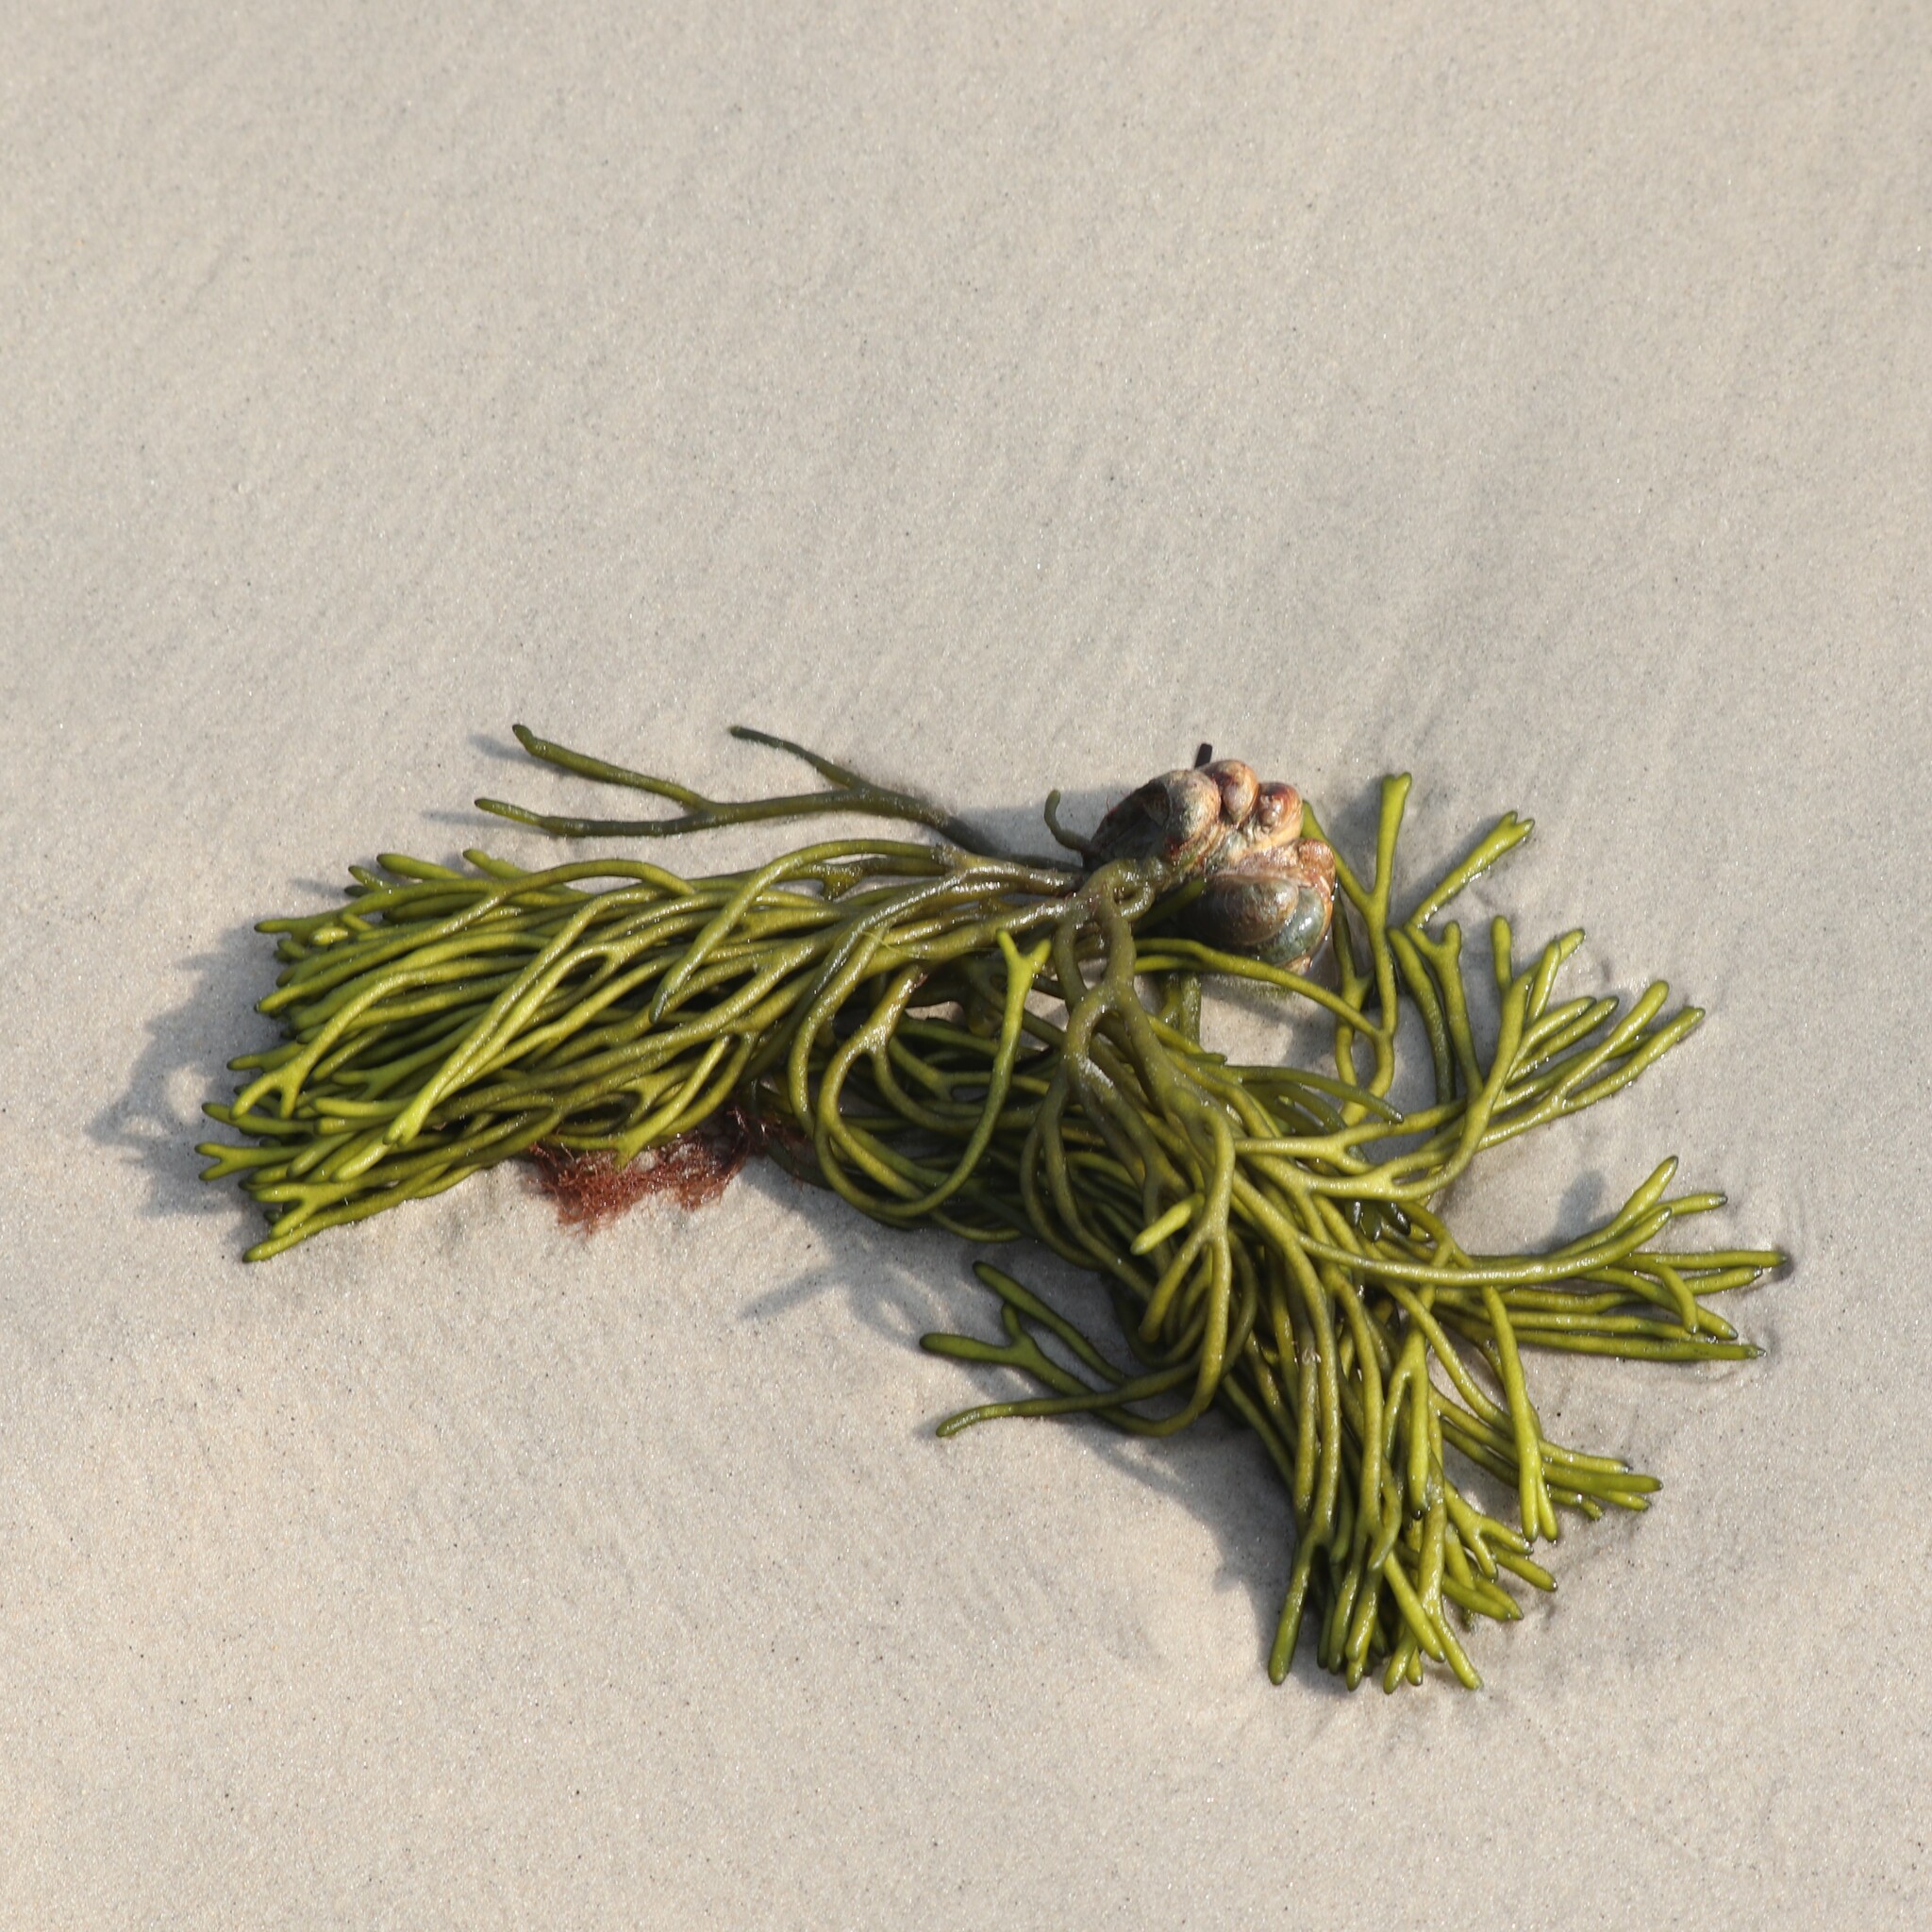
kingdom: Plantae
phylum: Chlorophyta
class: Ulvophyceae
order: Bryopsidales
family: Codiaceae
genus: Codium
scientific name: Codium fragile
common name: Dead man's fingers
